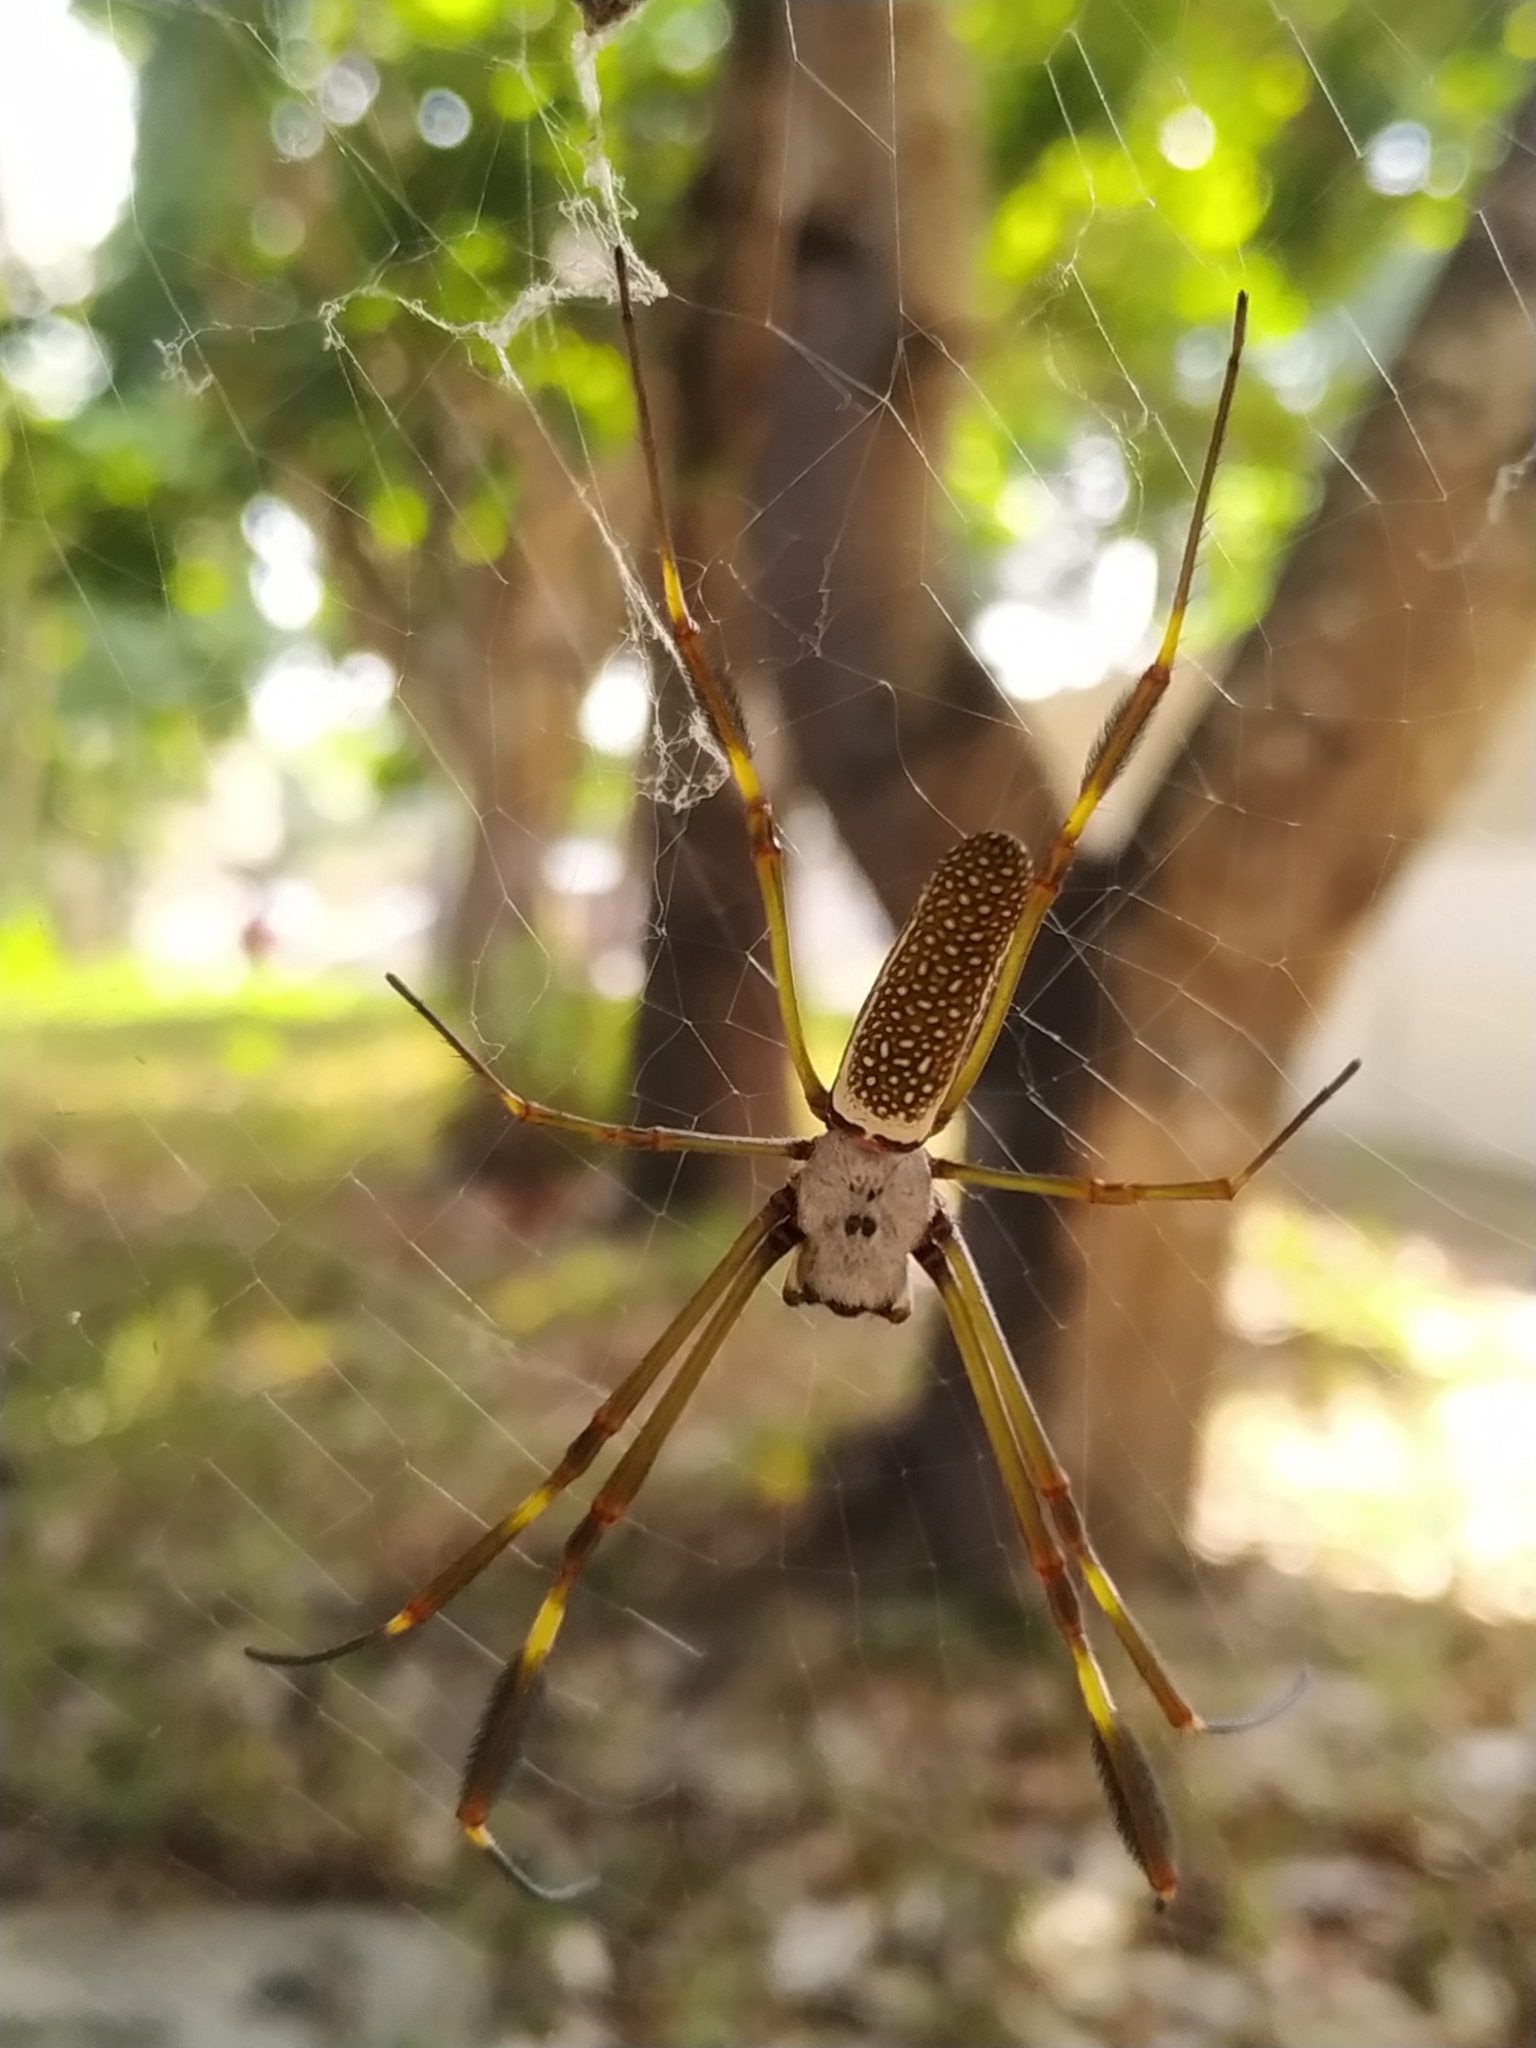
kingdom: Animalia
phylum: Arthropoda
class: Arachnida
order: Araneae
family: Araneidae
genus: Trichonephila
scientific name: Trichonephila clavipes
